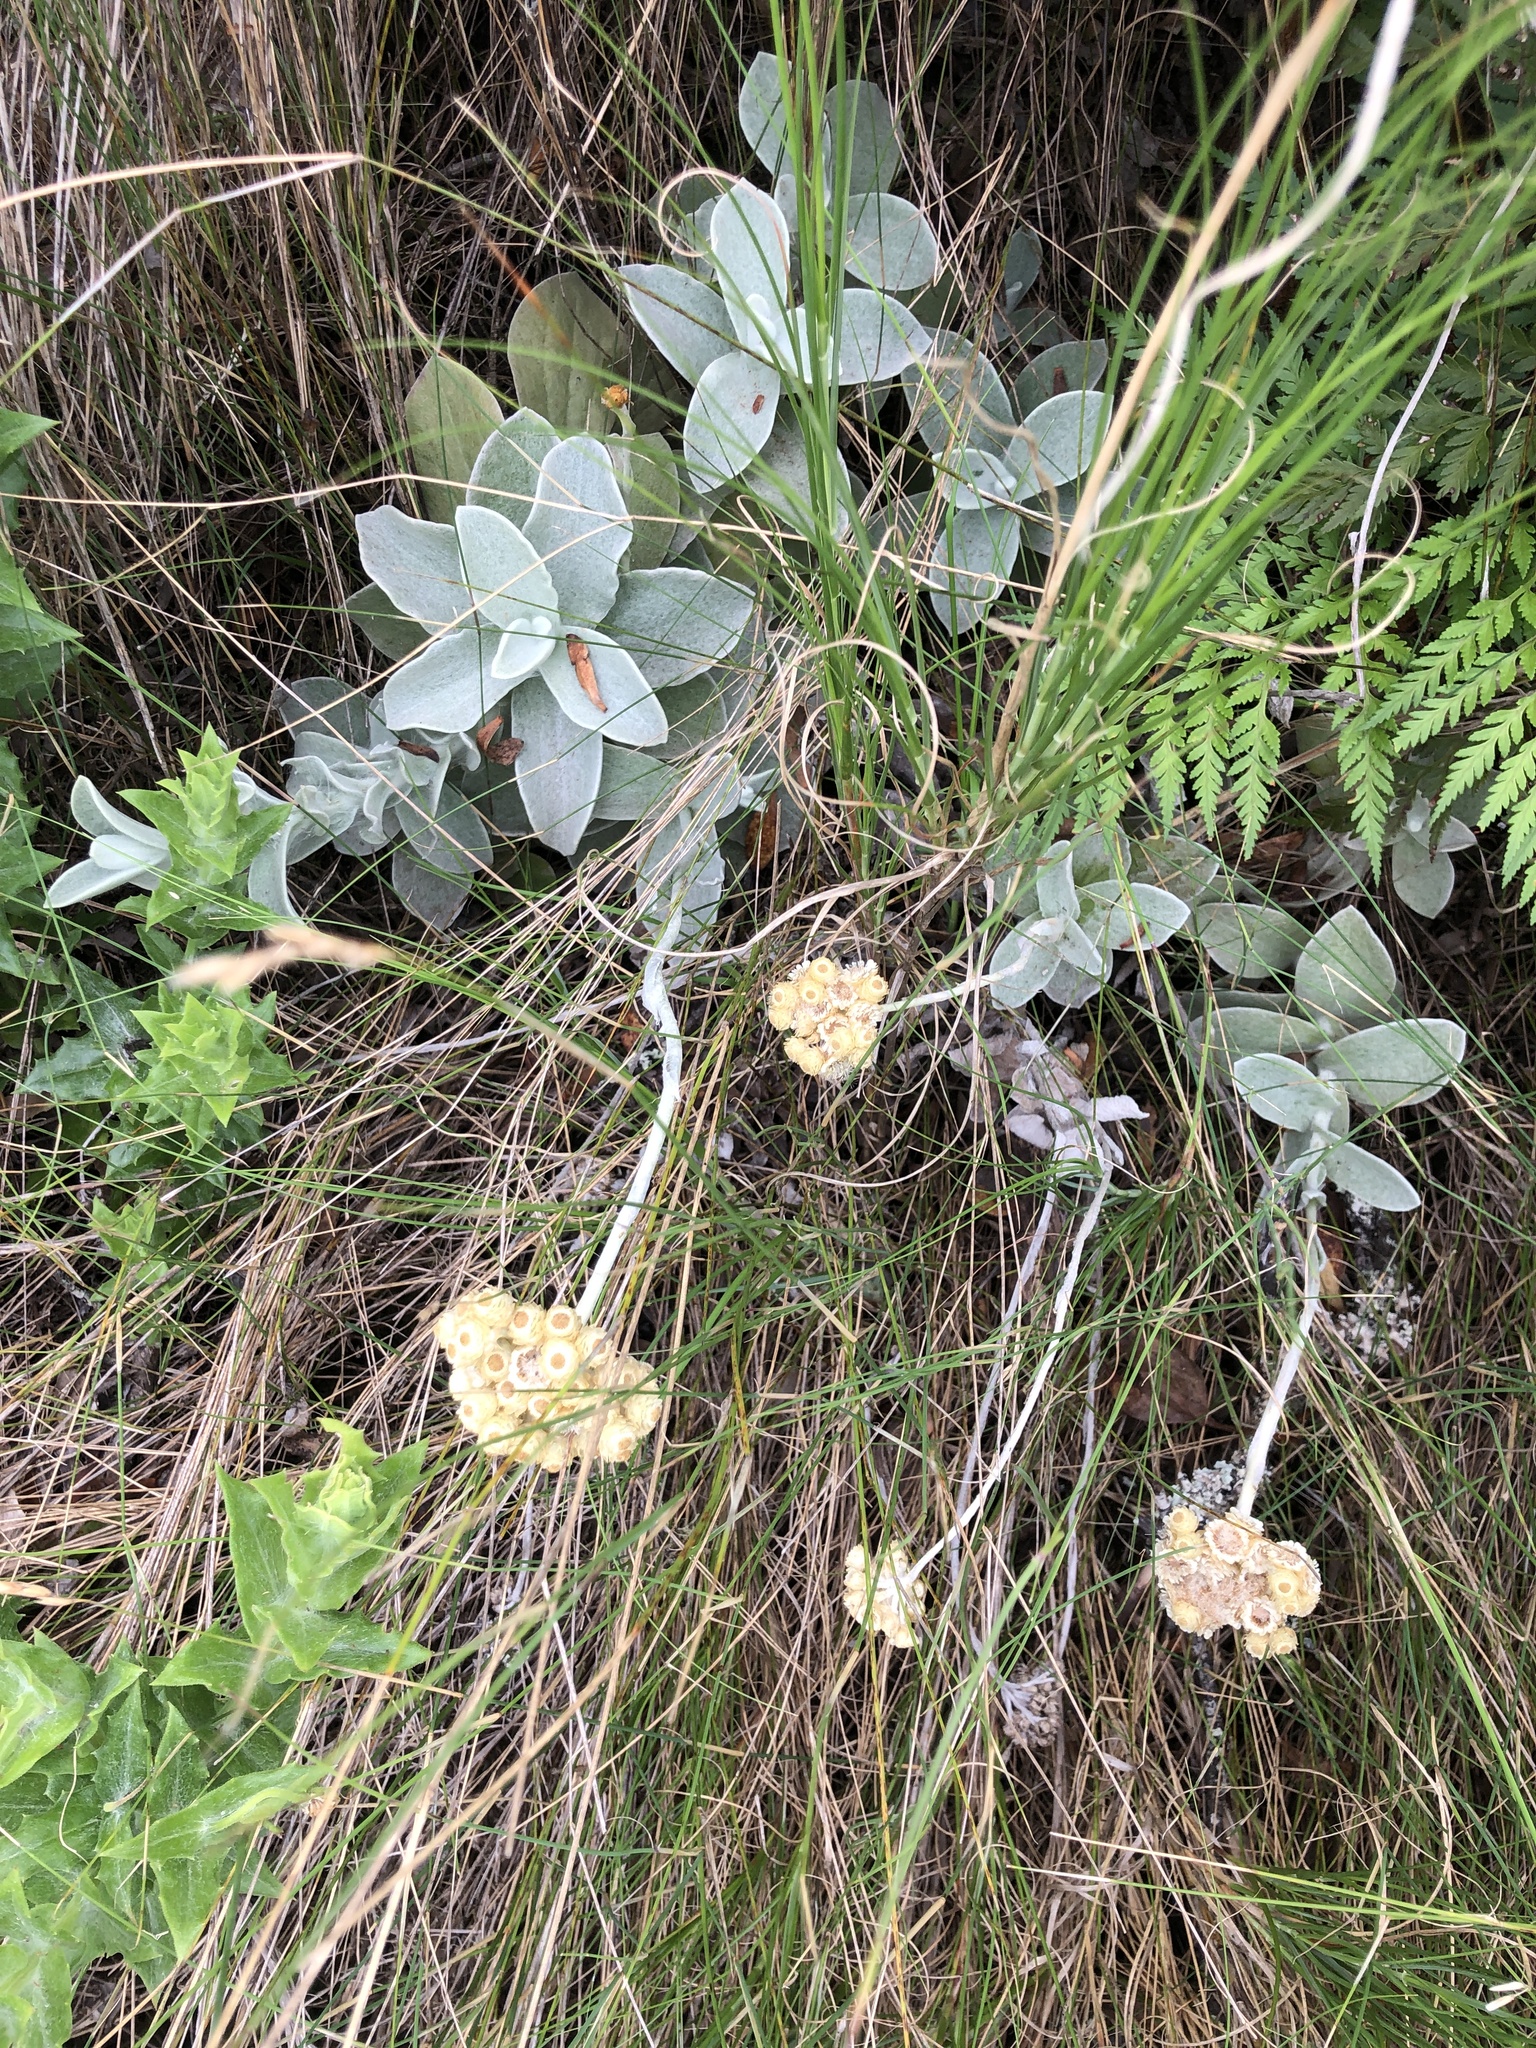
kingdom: Plantae
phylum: Tracheophyta
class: Magnoliopsida
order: Asterales
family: Asteraceae
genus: Helichrysum
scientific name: Helichrysum grandiflorum
